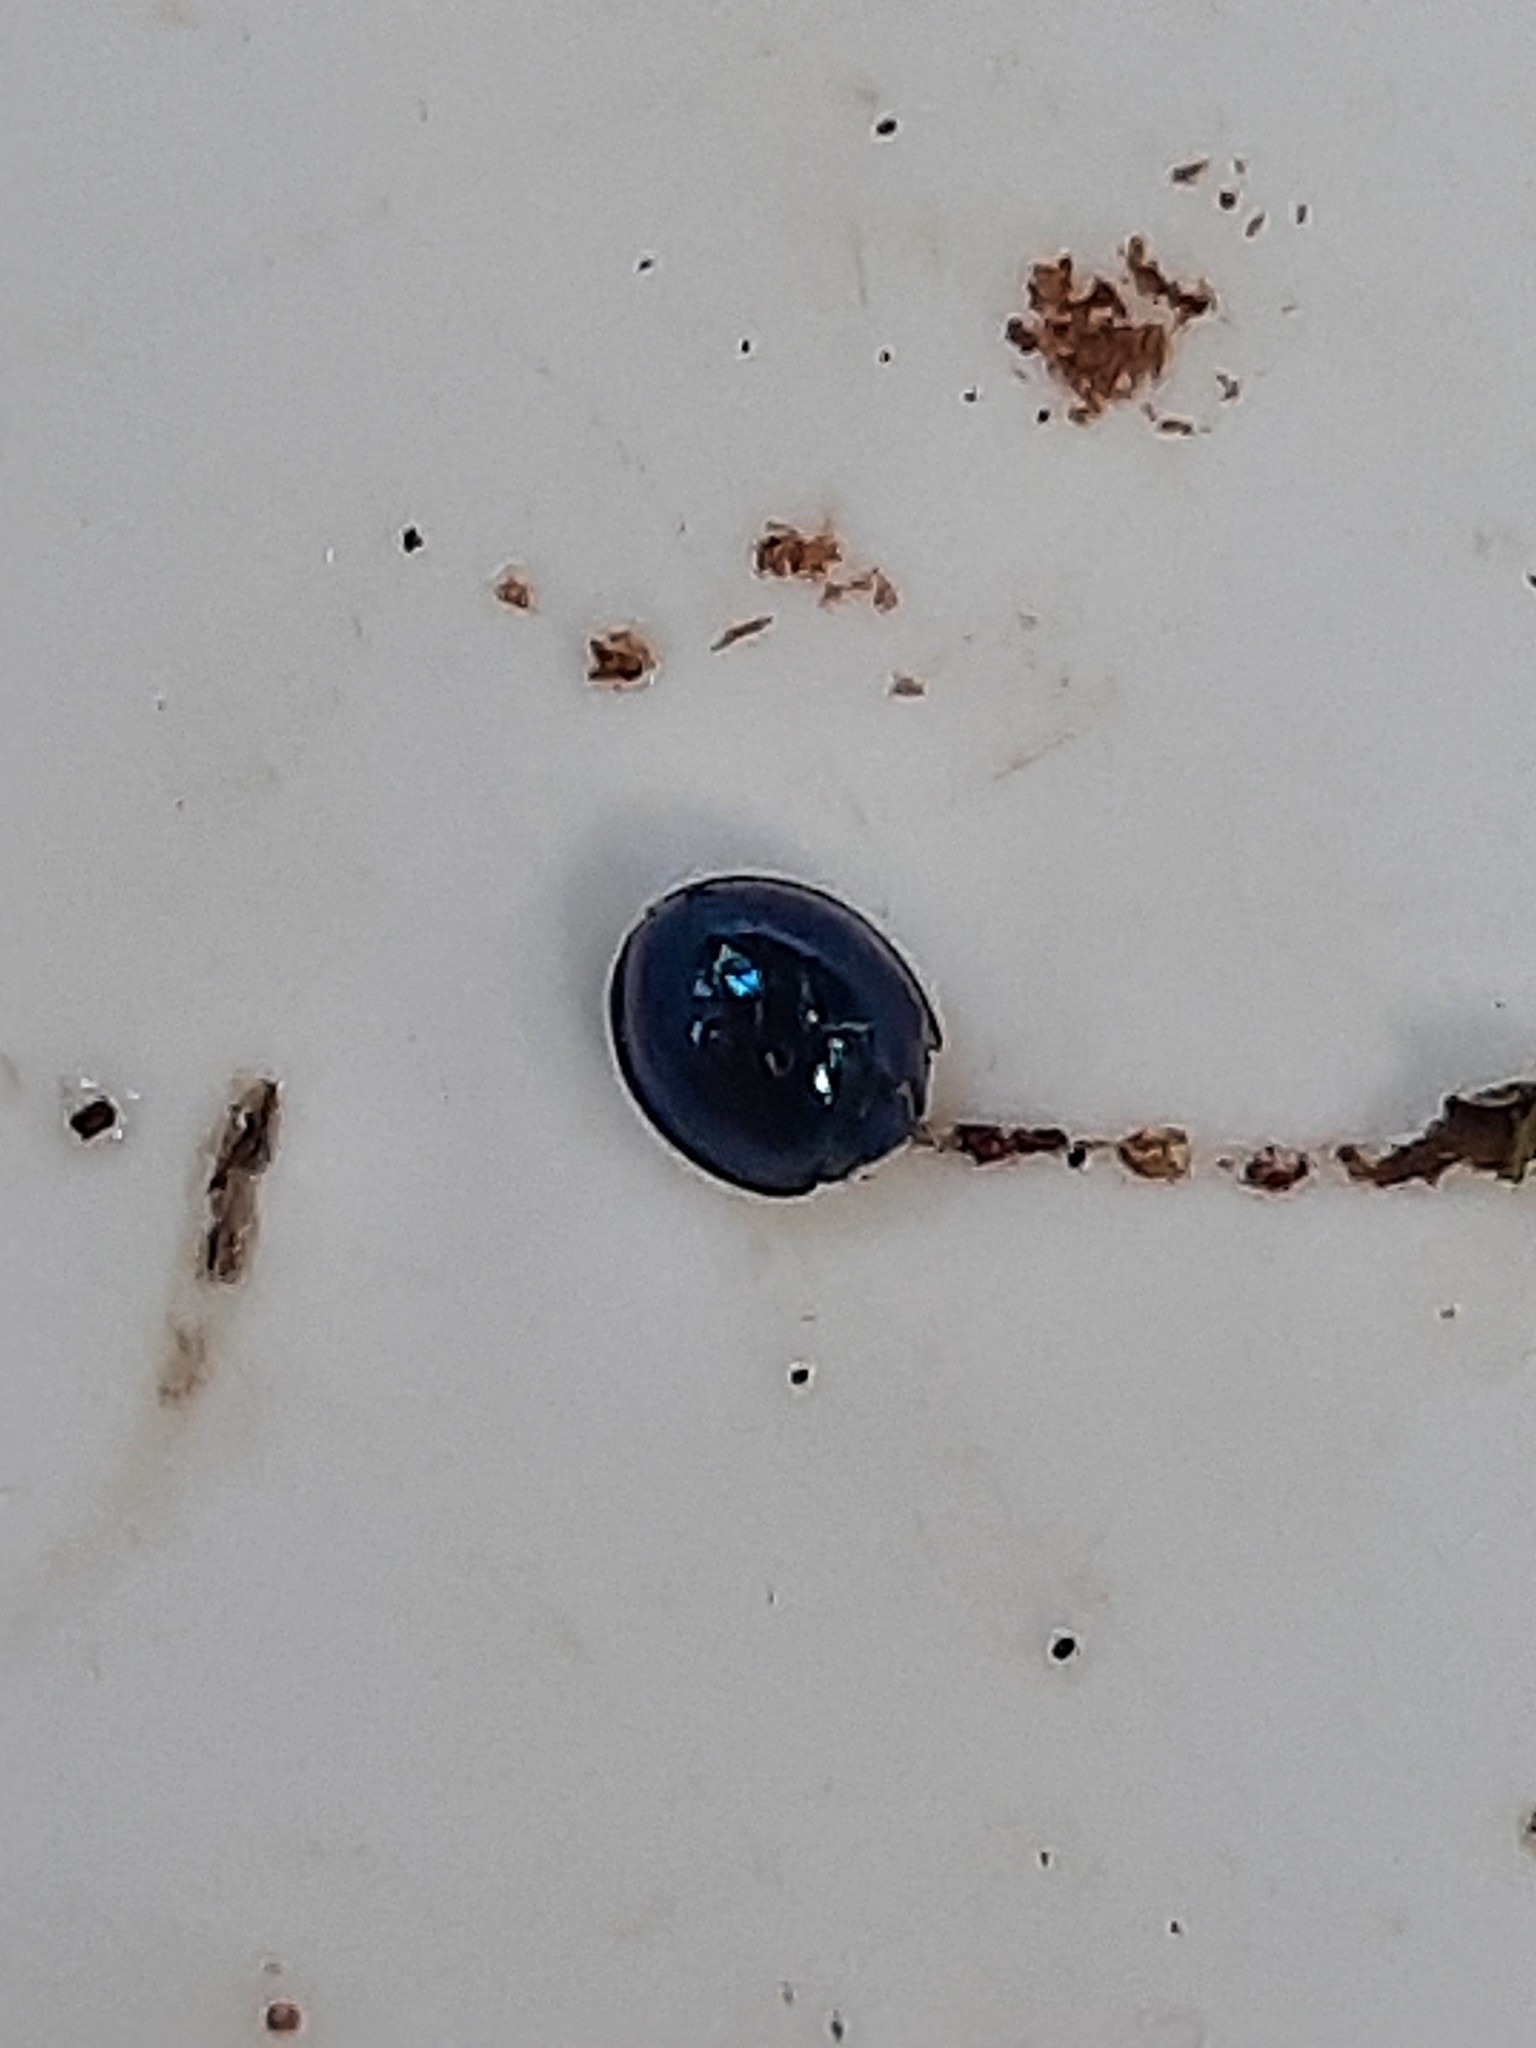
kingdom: Animalia
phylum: Arthropoda
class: Insecta
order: Coleoptera
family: Coccinellidae
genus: Halmus
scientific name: Halmus chalybeus
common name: Steel blue ladybird beetle
